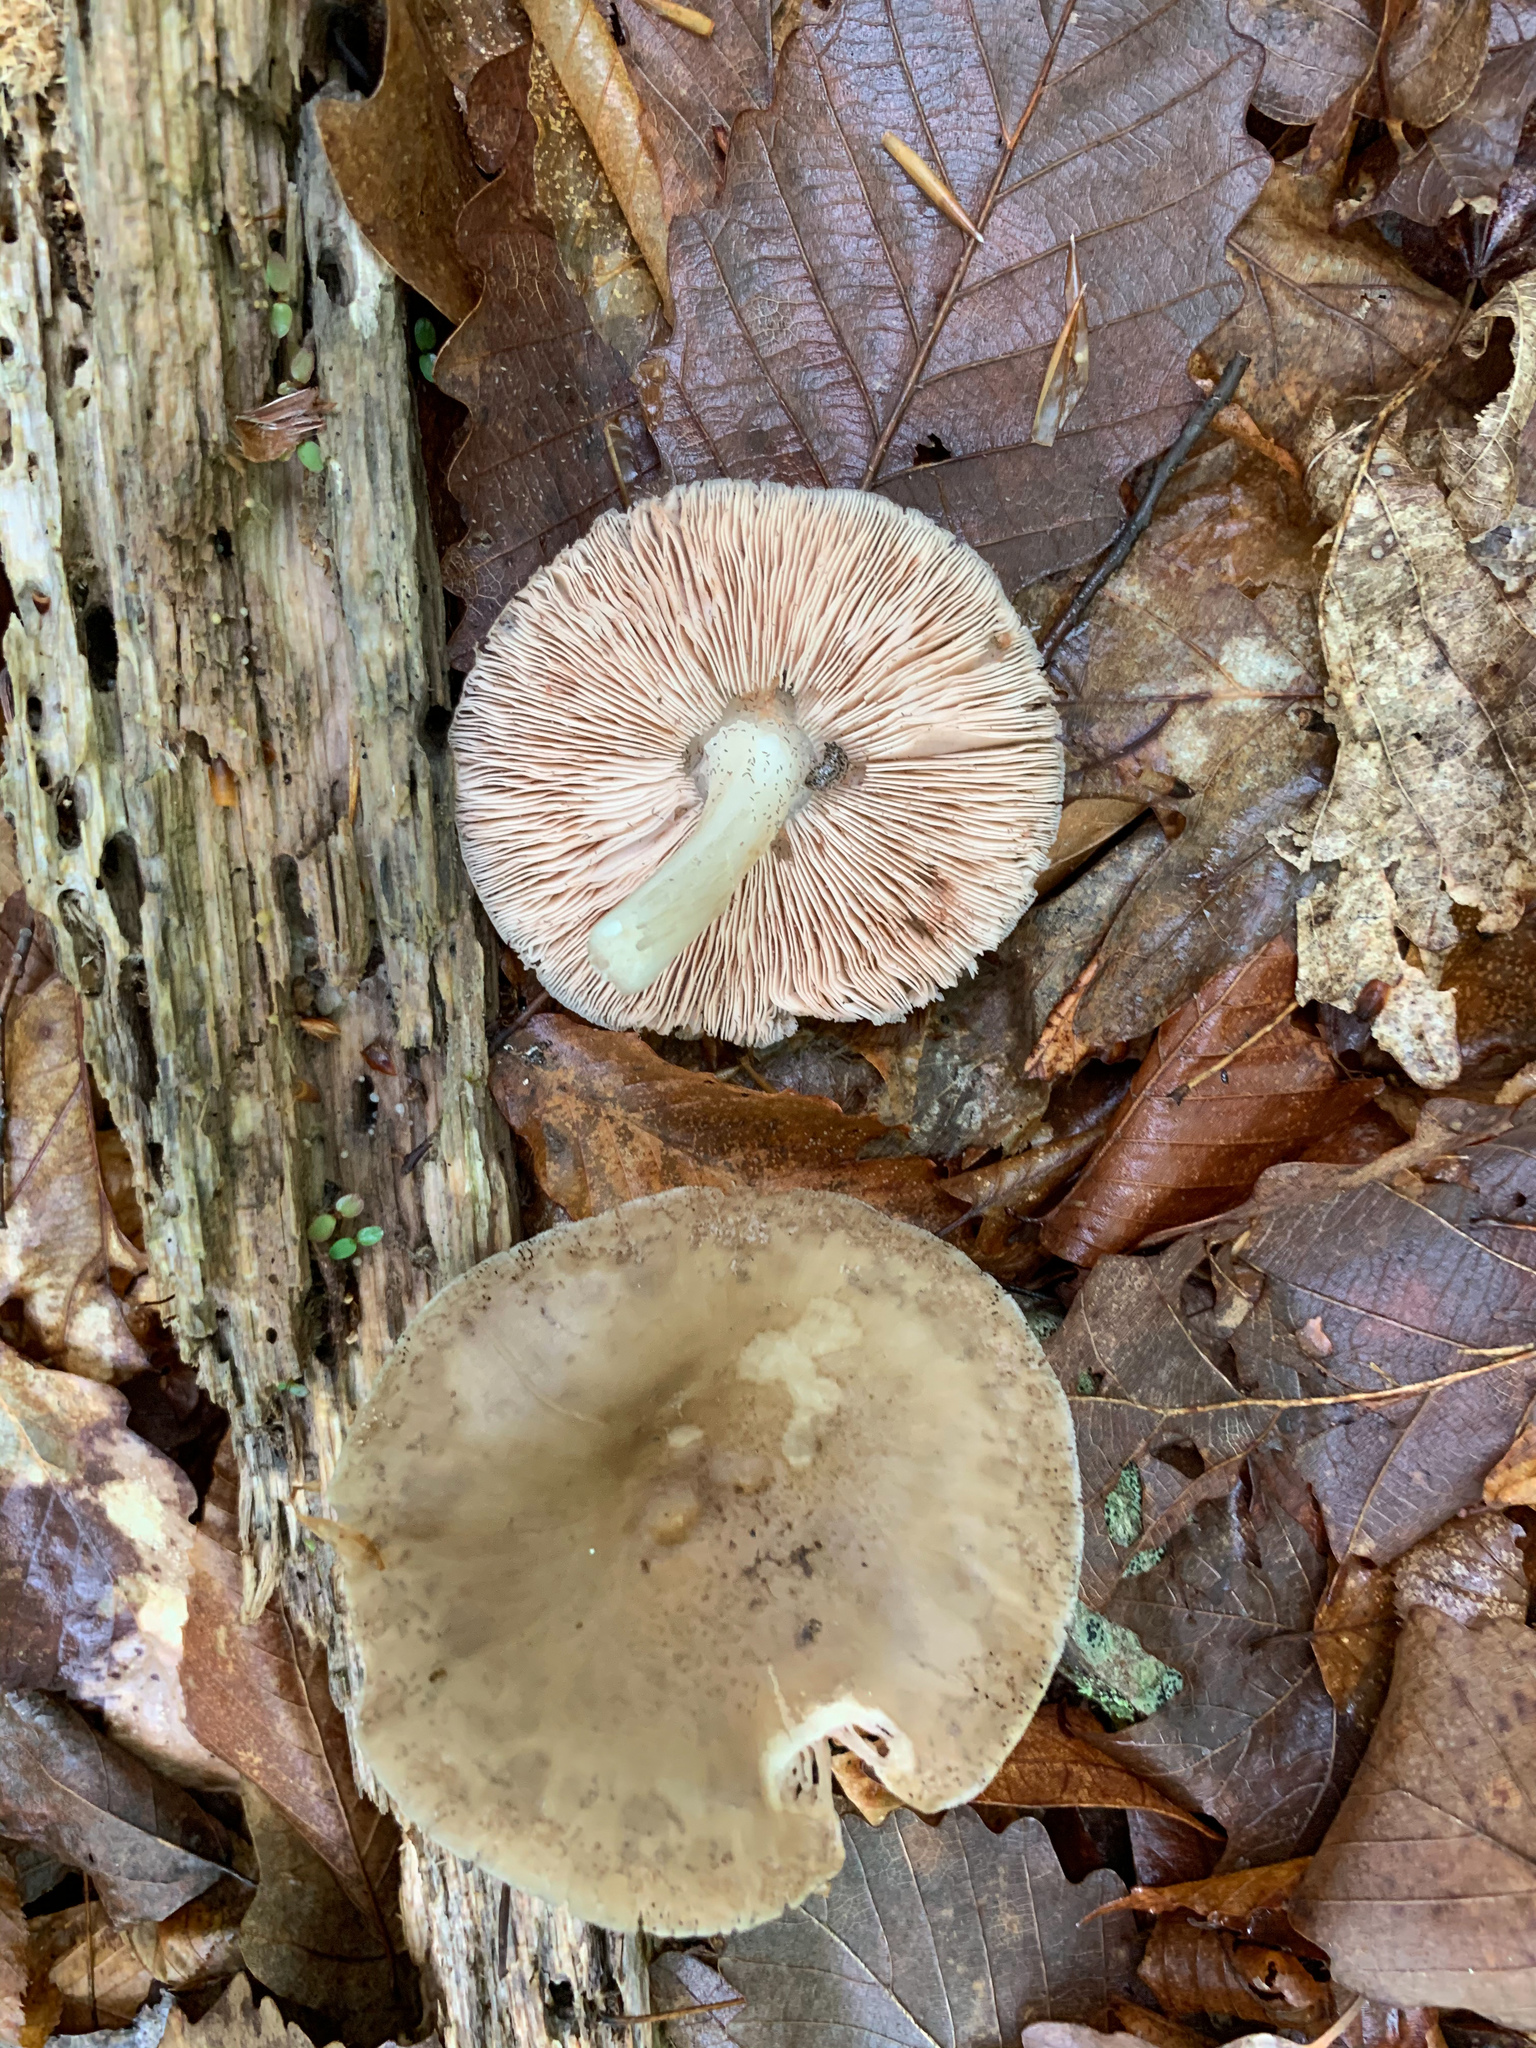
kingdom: Fungi
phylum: Basidiomycota
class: Agaricomycetes
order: Agaricales
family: Pluteaceae
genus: Pluteus
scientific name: Pluteus cervinus
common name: Deer shield
